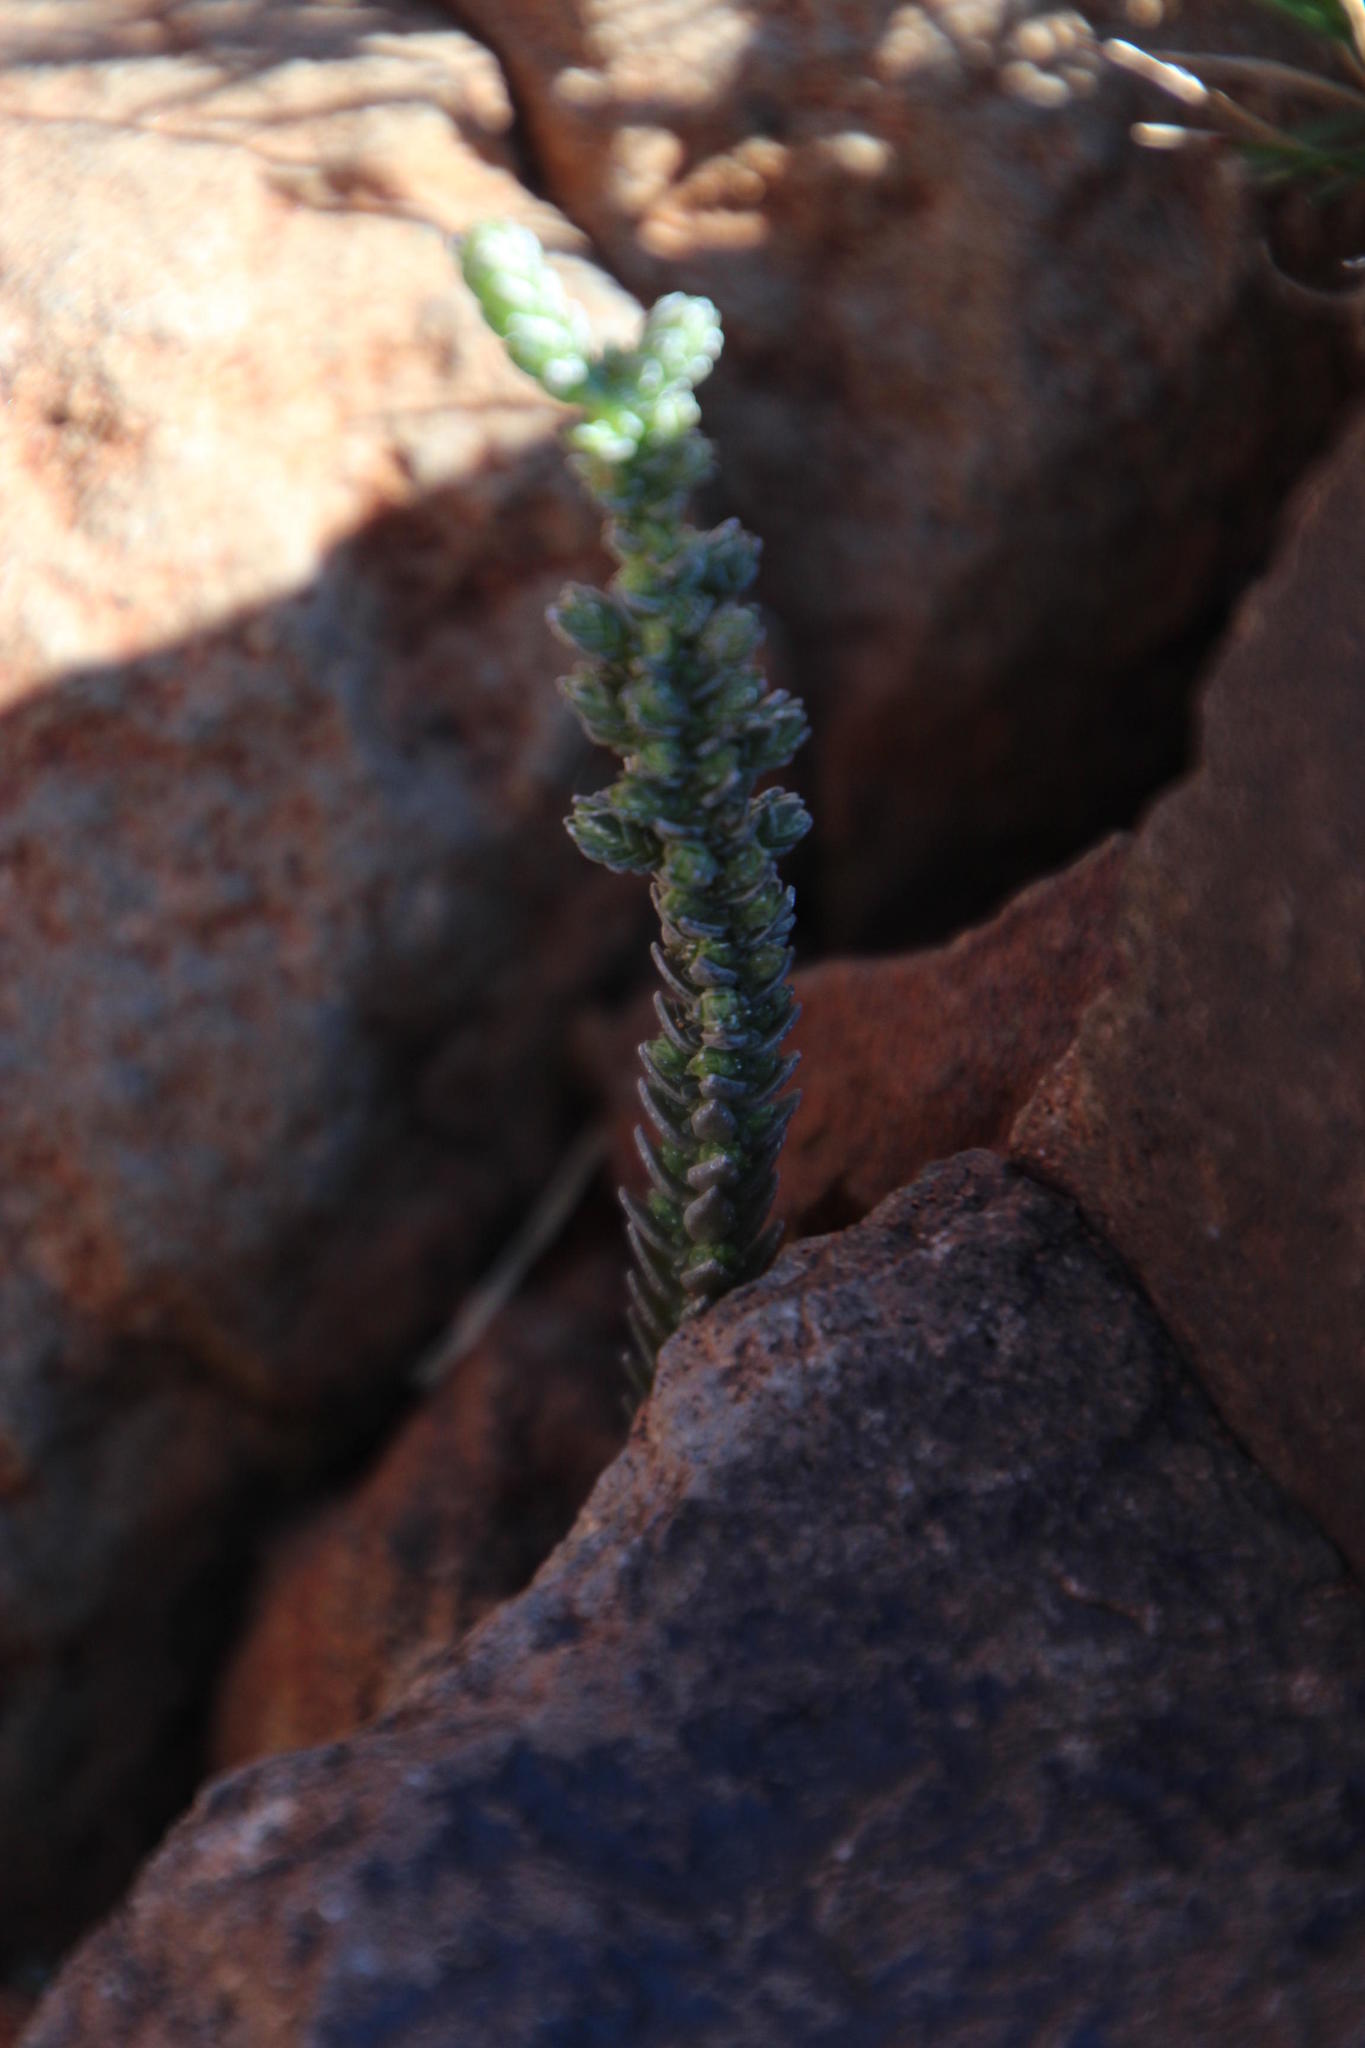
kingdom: Plantae
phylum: Tracheophyta
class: Magnoliopsida
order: Saxifragales
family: Crassulaceae
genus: Crassula
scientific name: Crassula muscosa
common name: Toy-cypress
